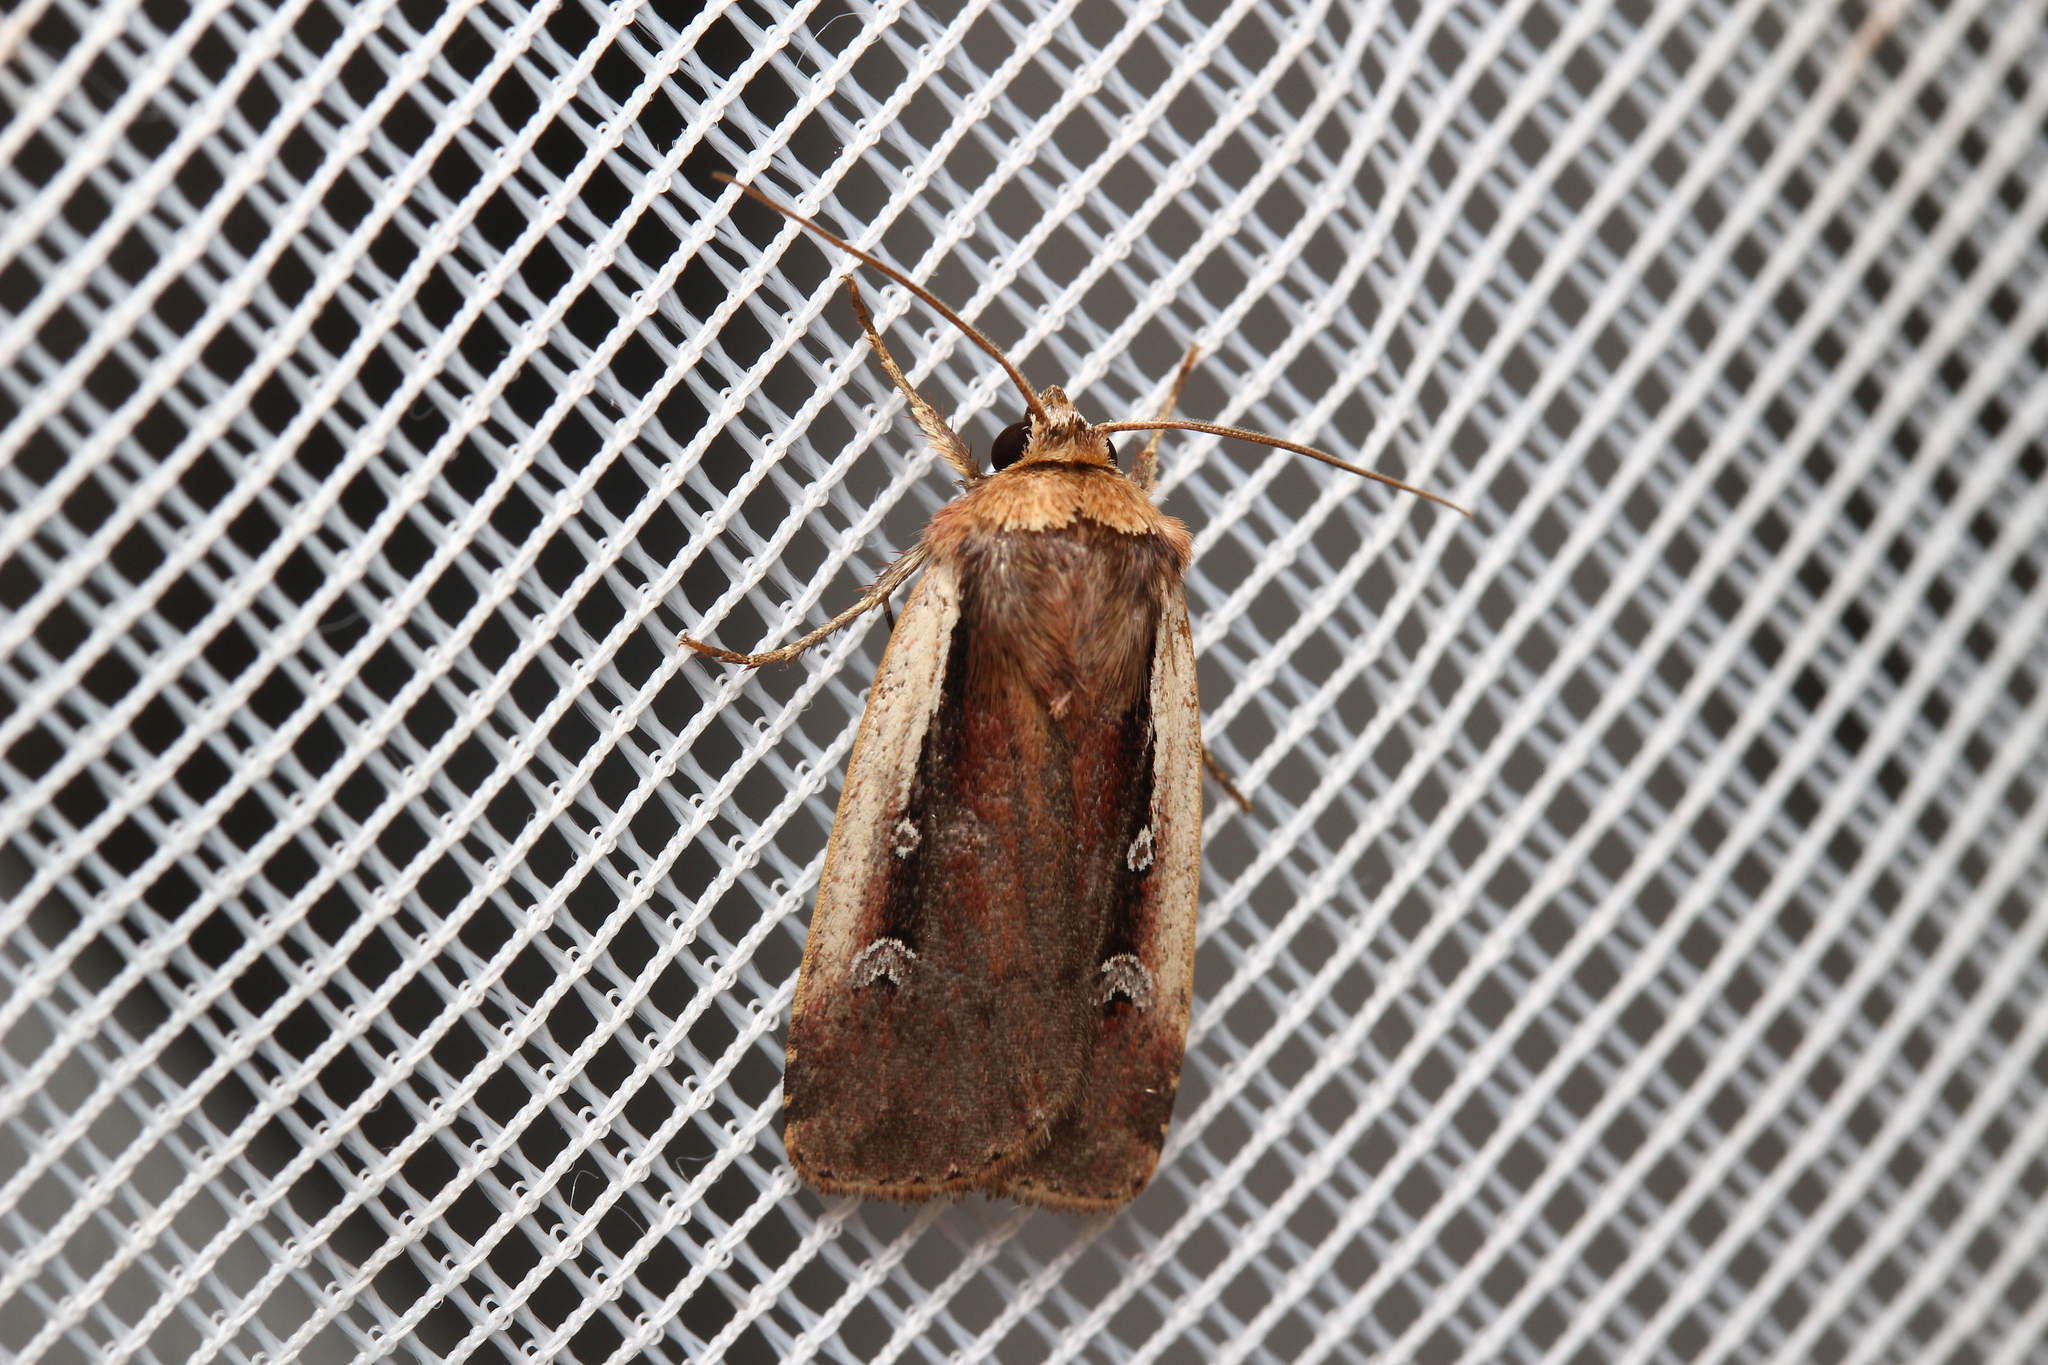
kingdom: Animalia
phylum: Arthropoda
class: Insecta
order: Lepidoptera
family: Noctuidae
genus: Ochropleura
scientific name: Ochropleura plecta
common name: Flame shoulder
